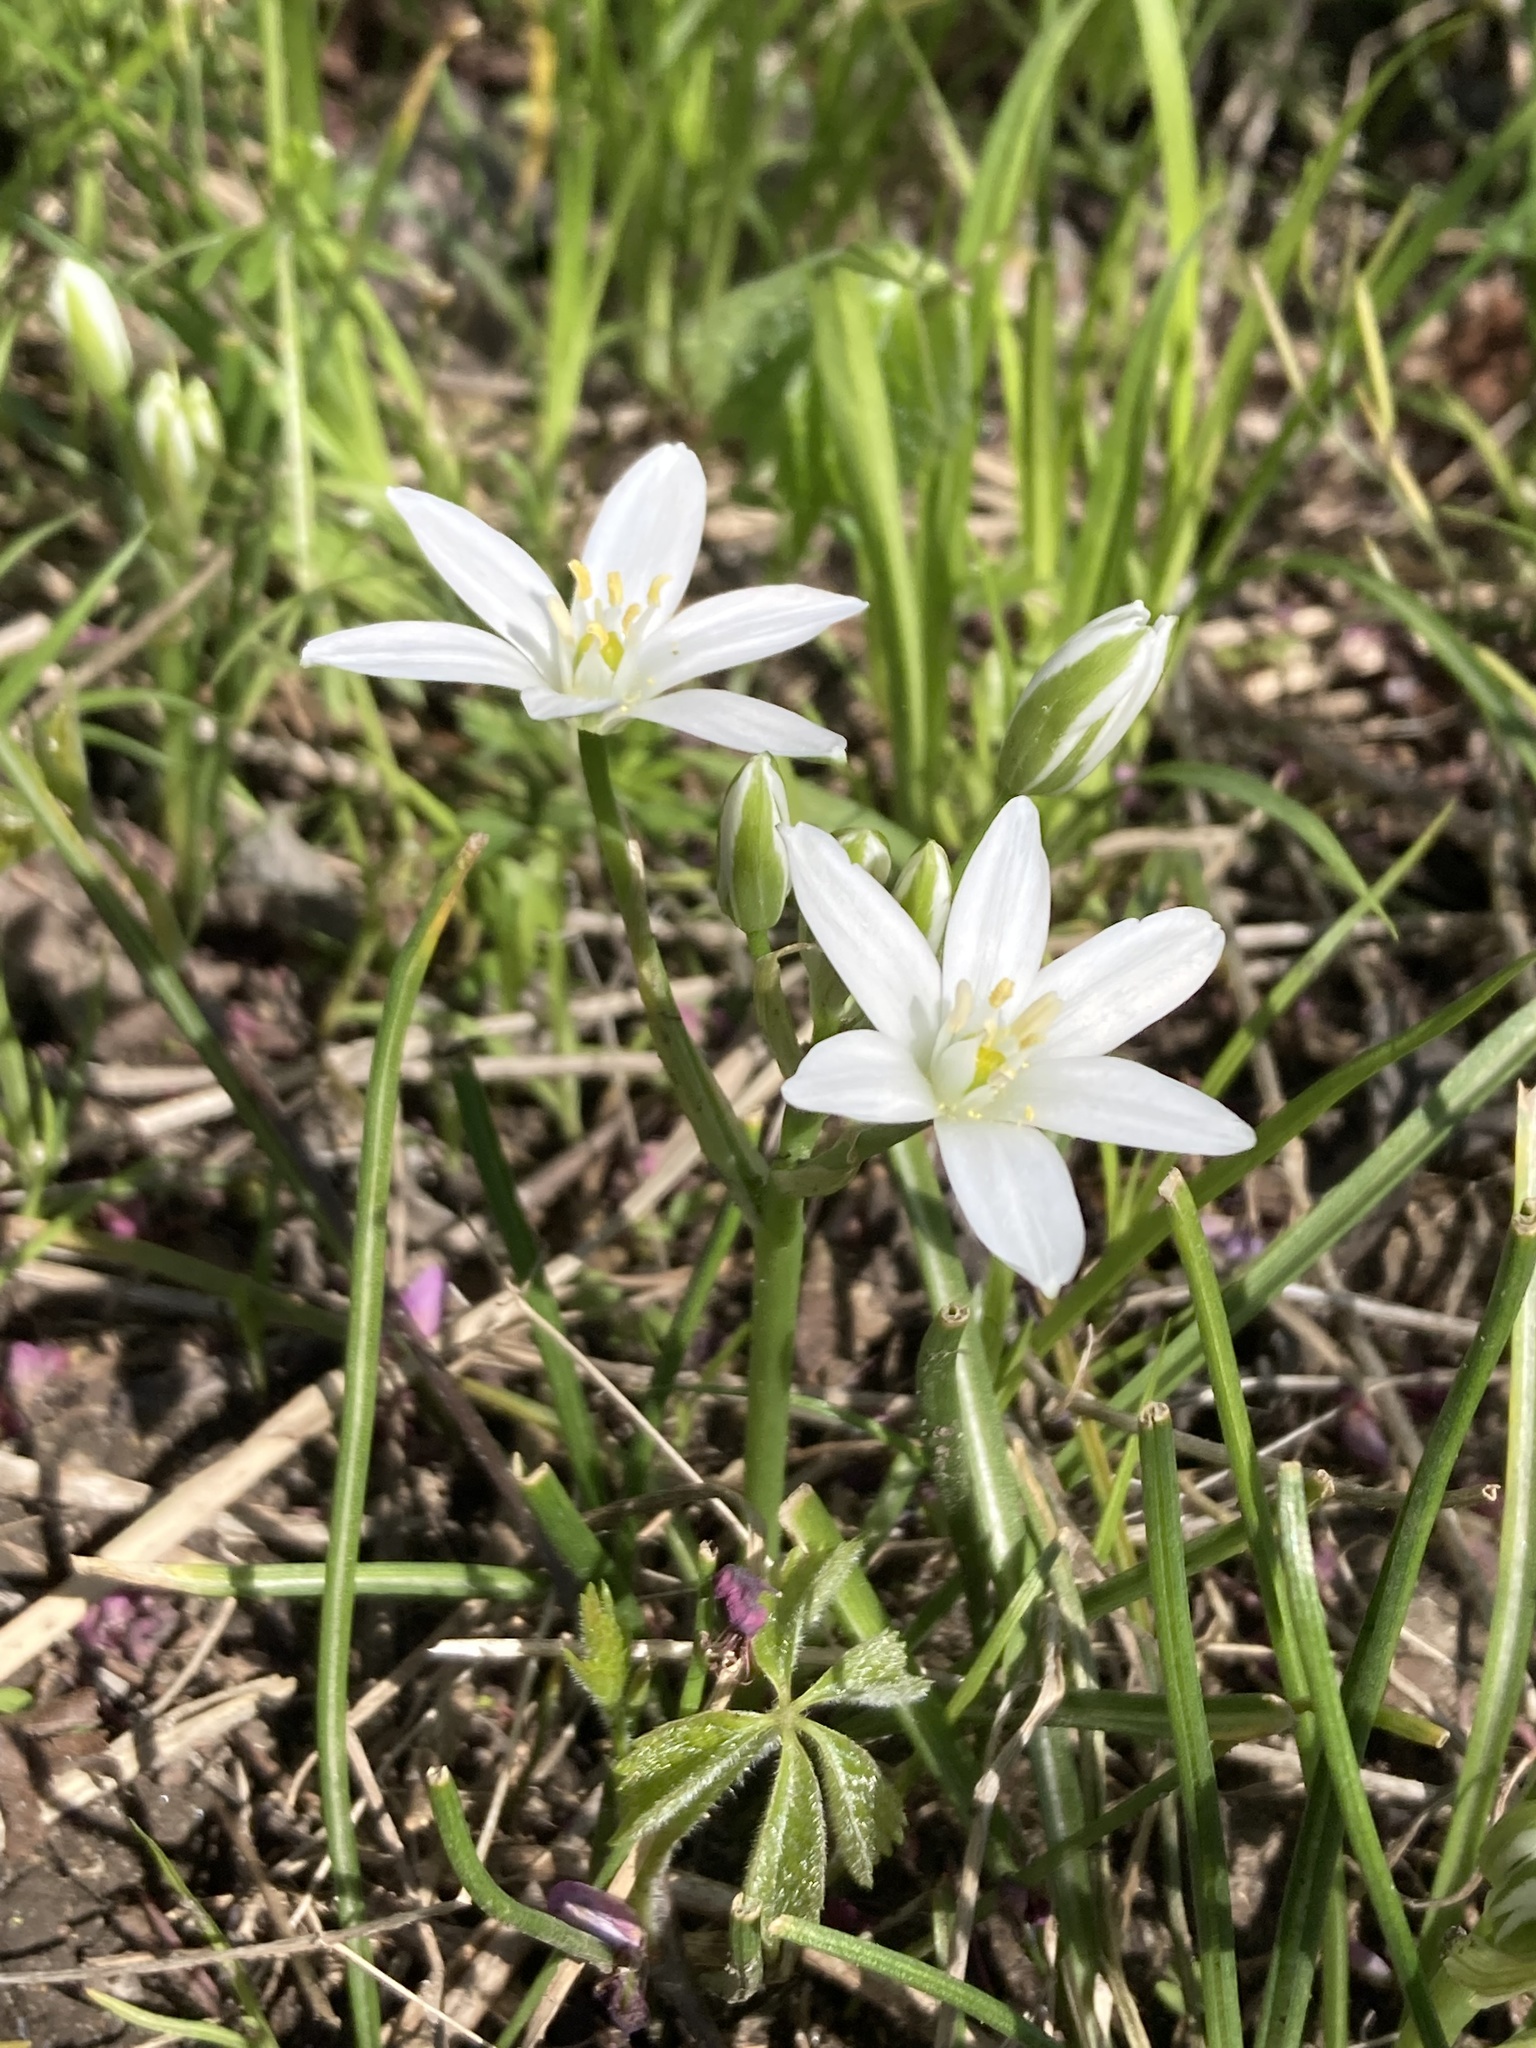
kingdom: Plantae
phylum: Tracheophyta
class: Liliopsida
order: Asparagales
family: Asparagaceae
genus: Ornithogalum
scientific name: Ornithogalum umbellatum
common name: Garden star-of-bethlehem
